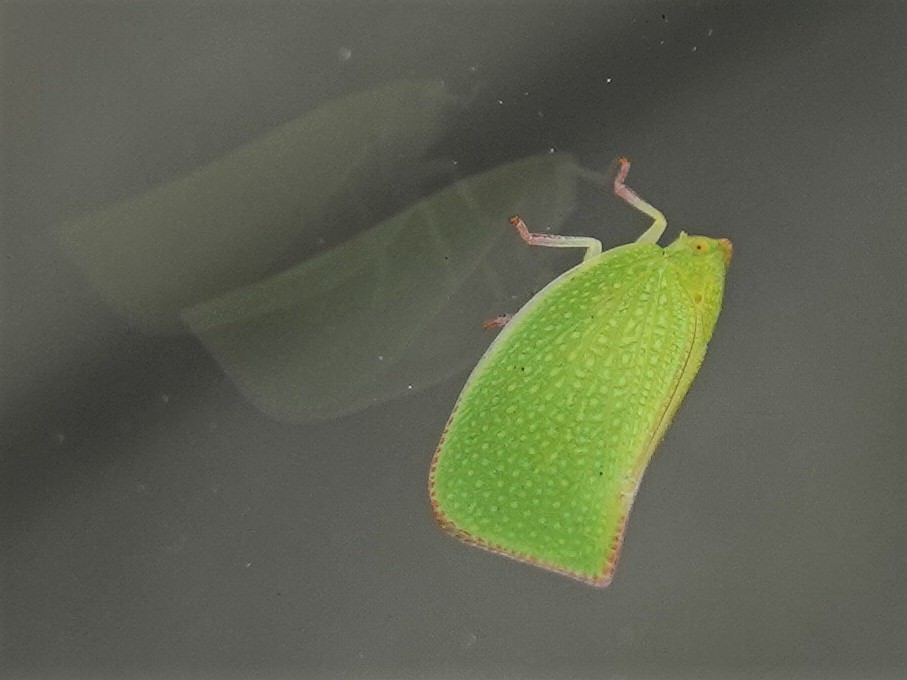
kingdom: Animalia
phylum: Arthropoda
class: Insecta
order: Hemiptera
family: Flatidae
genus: Siphanta
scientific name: Siphanta acuta
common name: Torpedo bug
